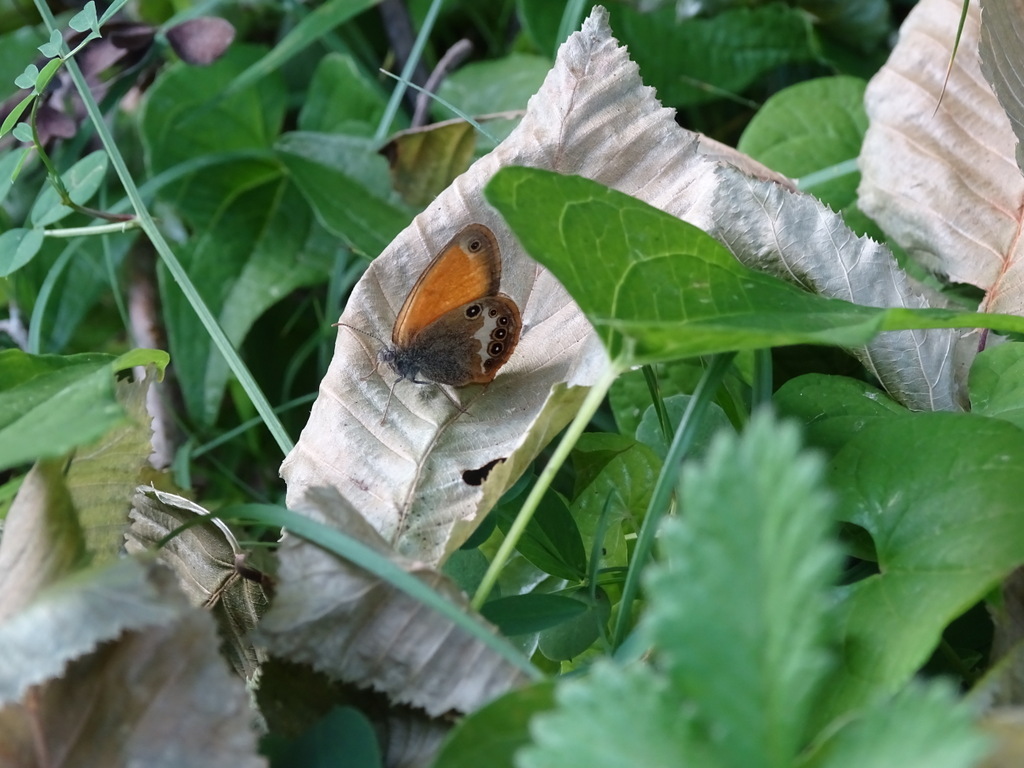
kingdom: Animalia
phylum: Arthropoda
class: Insecta
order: Lepidoptera
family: Nymphalidae
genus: Coenonympha
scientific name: Coenonympha arcania
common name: Pearly heath
